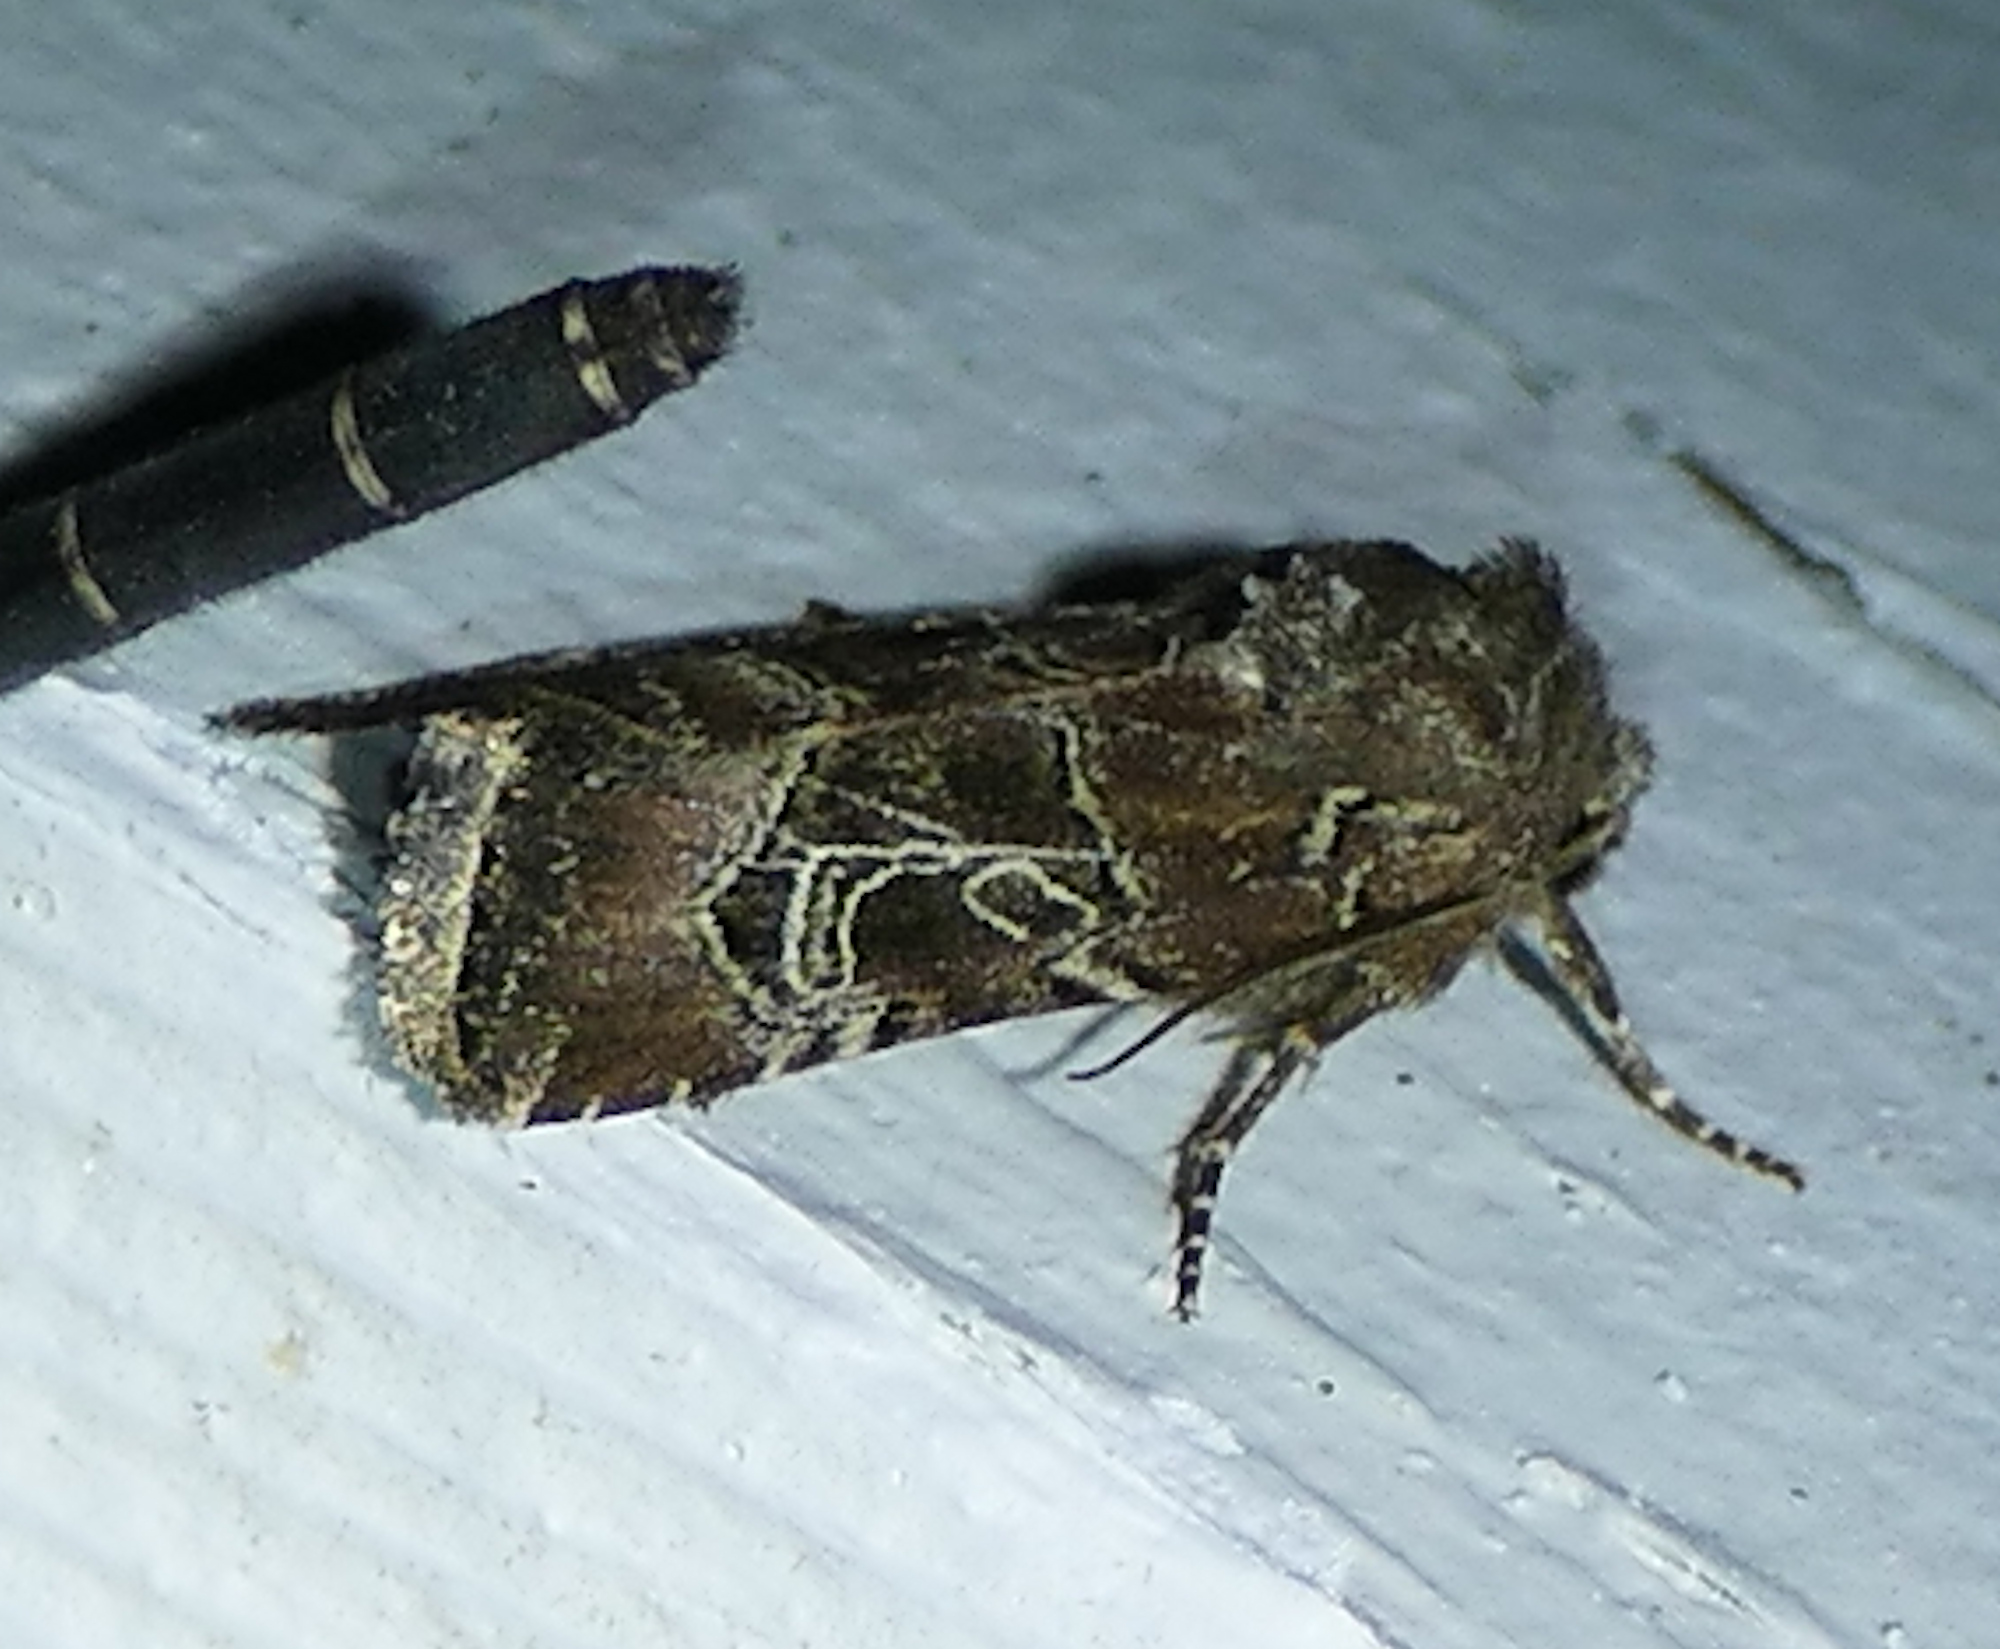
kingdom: Animalia
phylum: Arthropoda
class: Insecta
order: Lepidoptera
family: Noctuidae
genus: Lacinipolia
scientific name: Lacinipolia spiculosa
